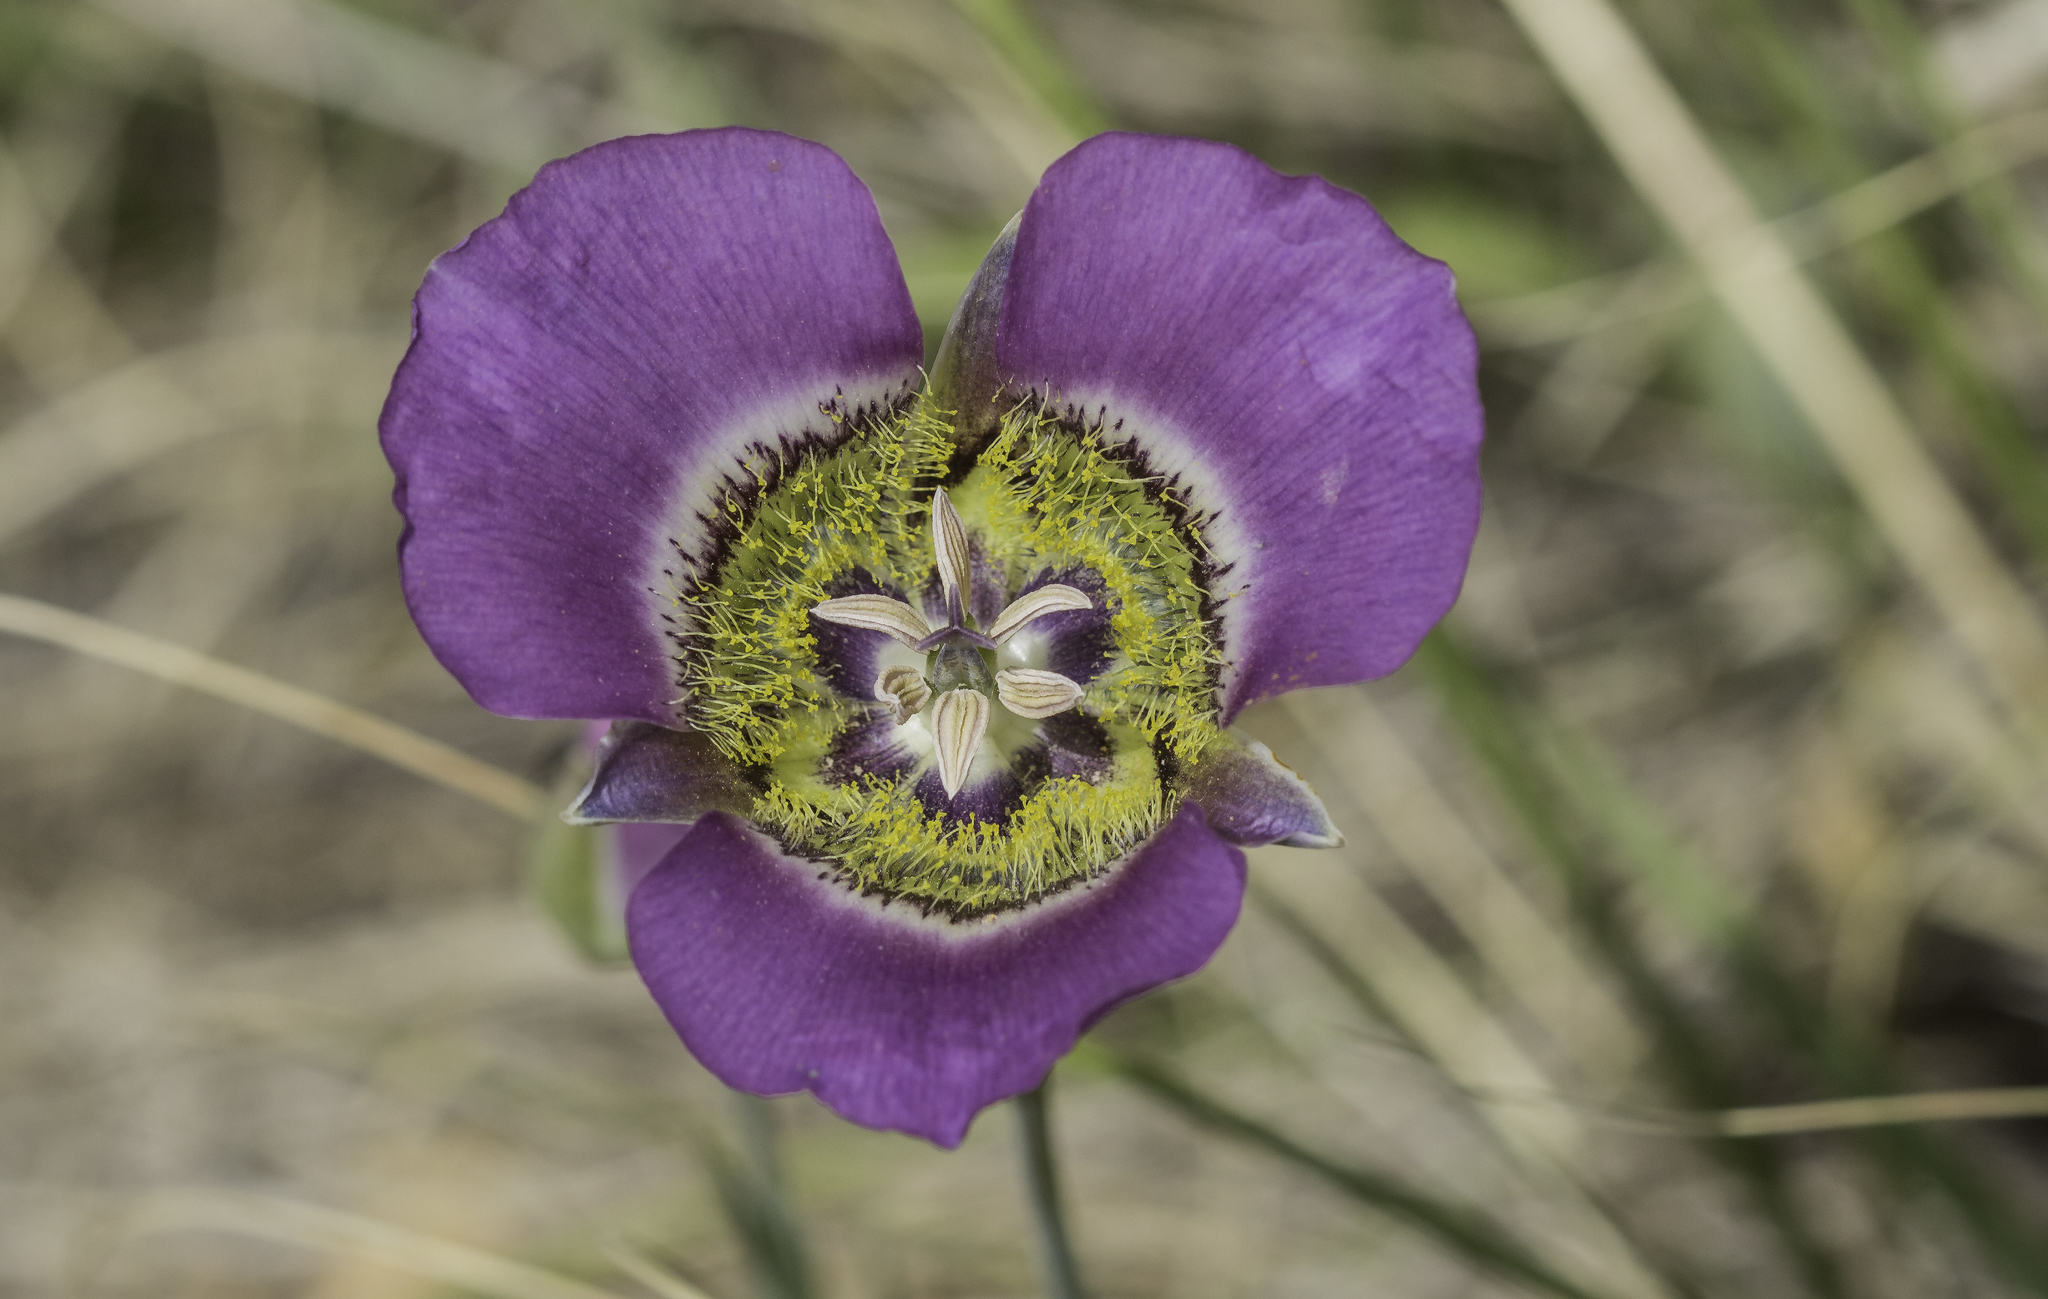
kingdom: Plantae
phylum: Tracheophyta
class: Liliopsida
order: Liliales
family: Liliaceae
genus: Calochortus
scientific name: Calochortus gunnisonii
